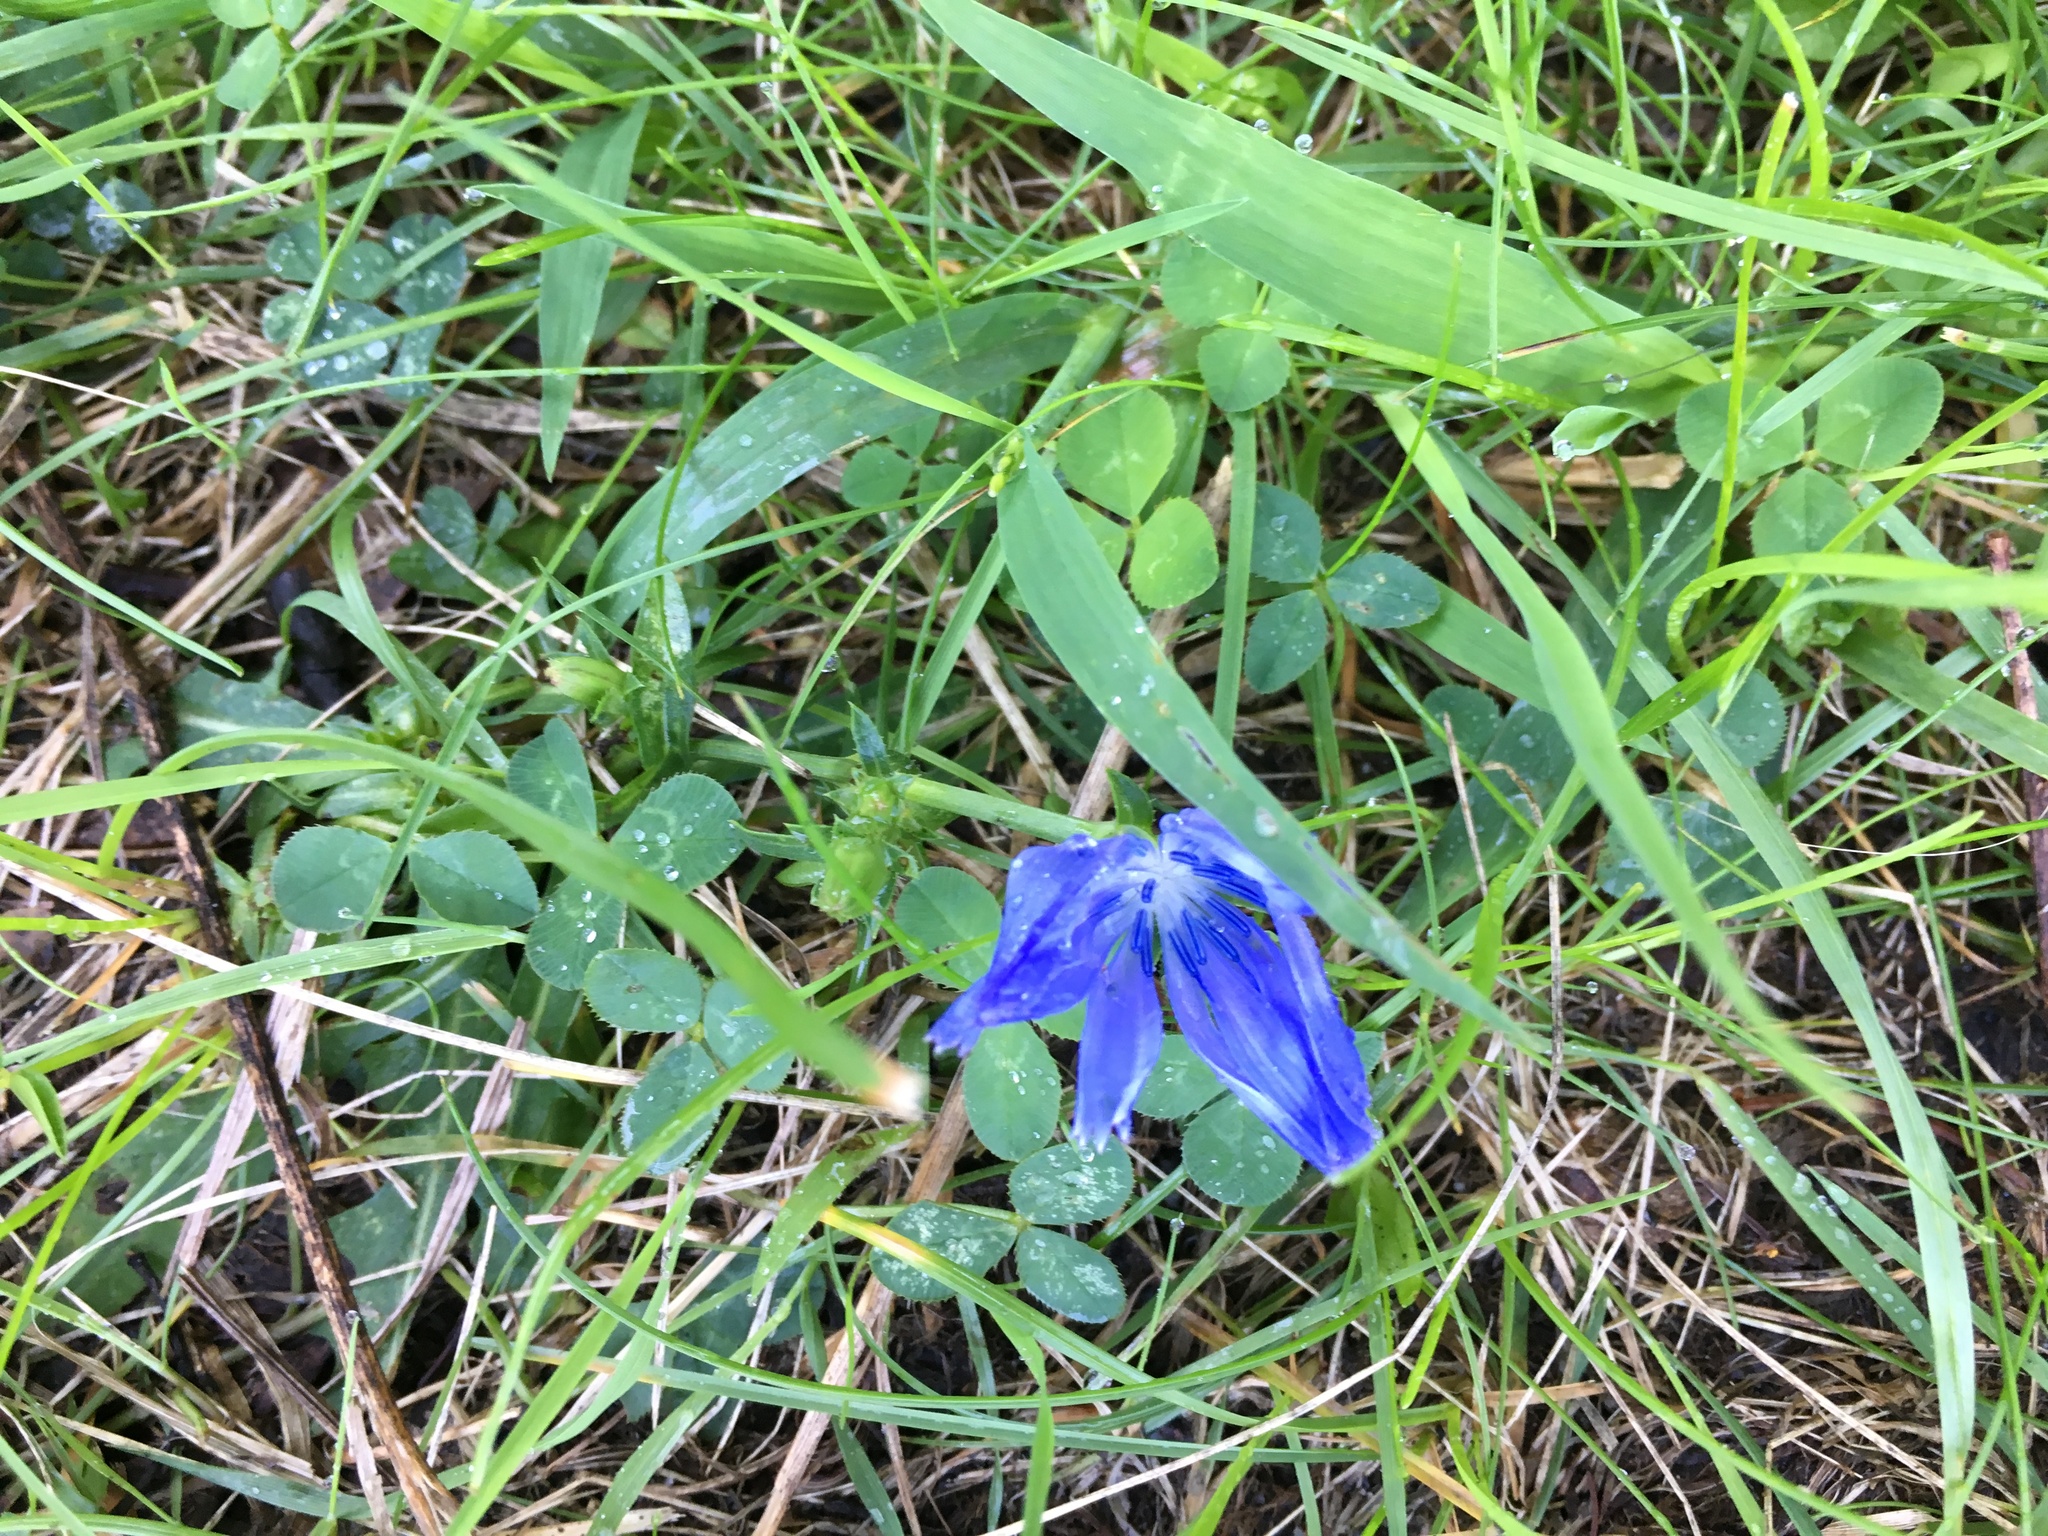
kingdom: Plantae
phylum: Tracheophyta
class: Magnoliopsida
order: Asterales
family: Asteraceae
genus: Cichorium
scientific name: Cichorium intybus
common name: Chicory
